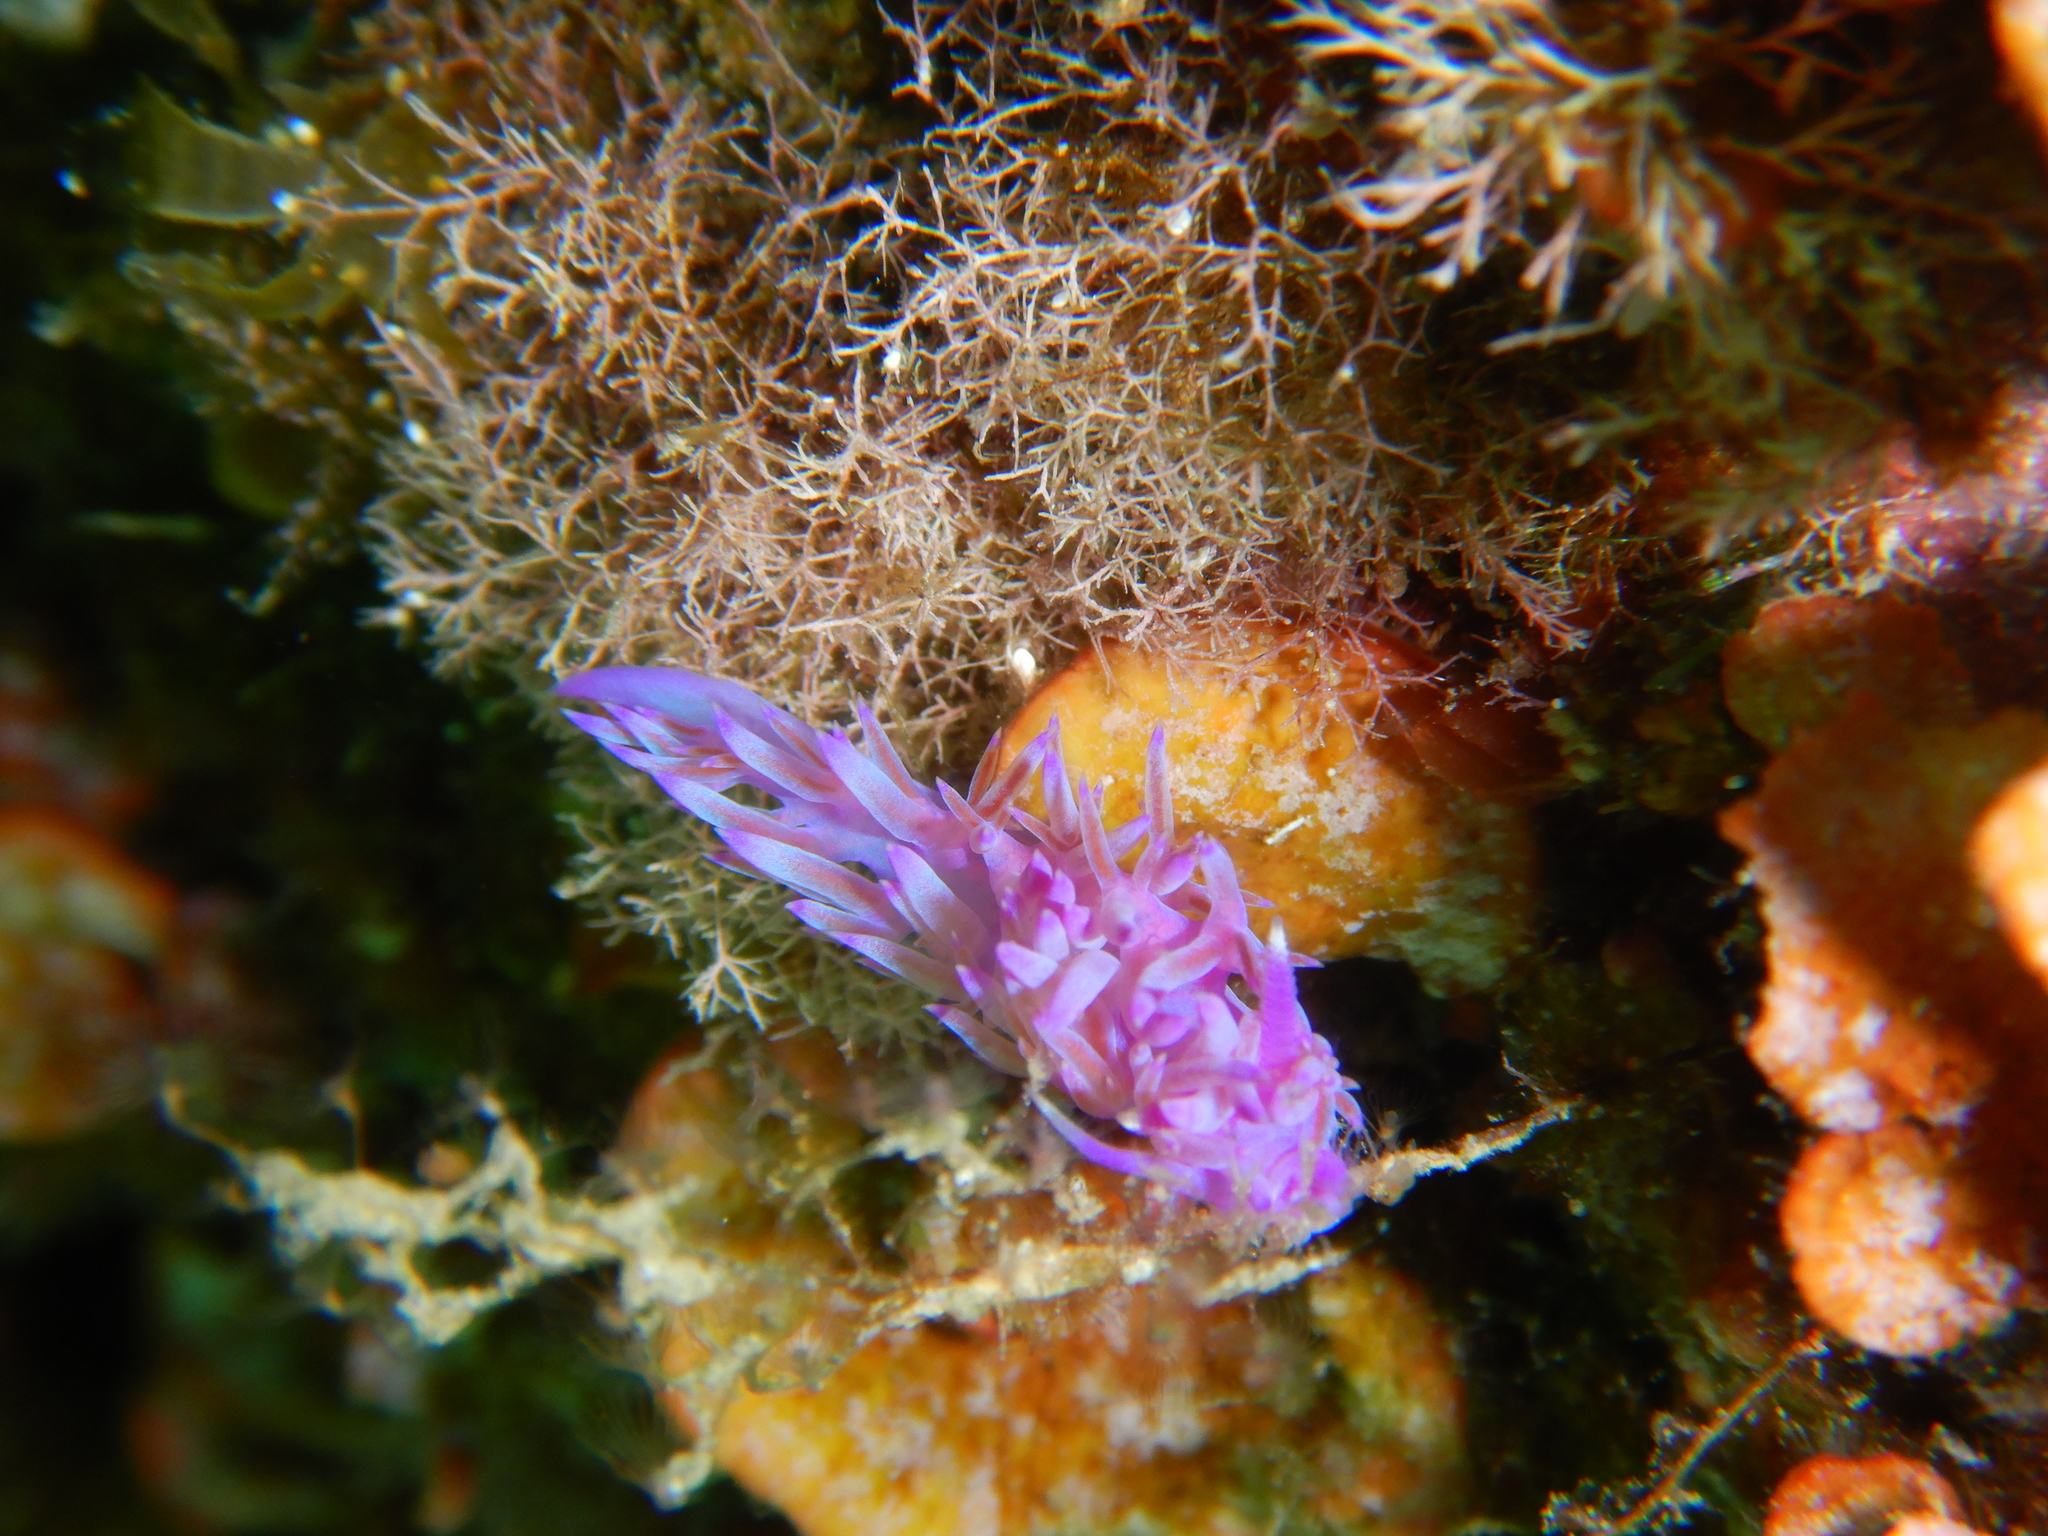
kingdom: Animalia
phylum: Mollusca
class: Gastropoda
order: Nudibranchia
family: Flabellinidae
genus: Flabellina
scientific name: Flabellina affinis
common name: Mediterranean violet aeolid
